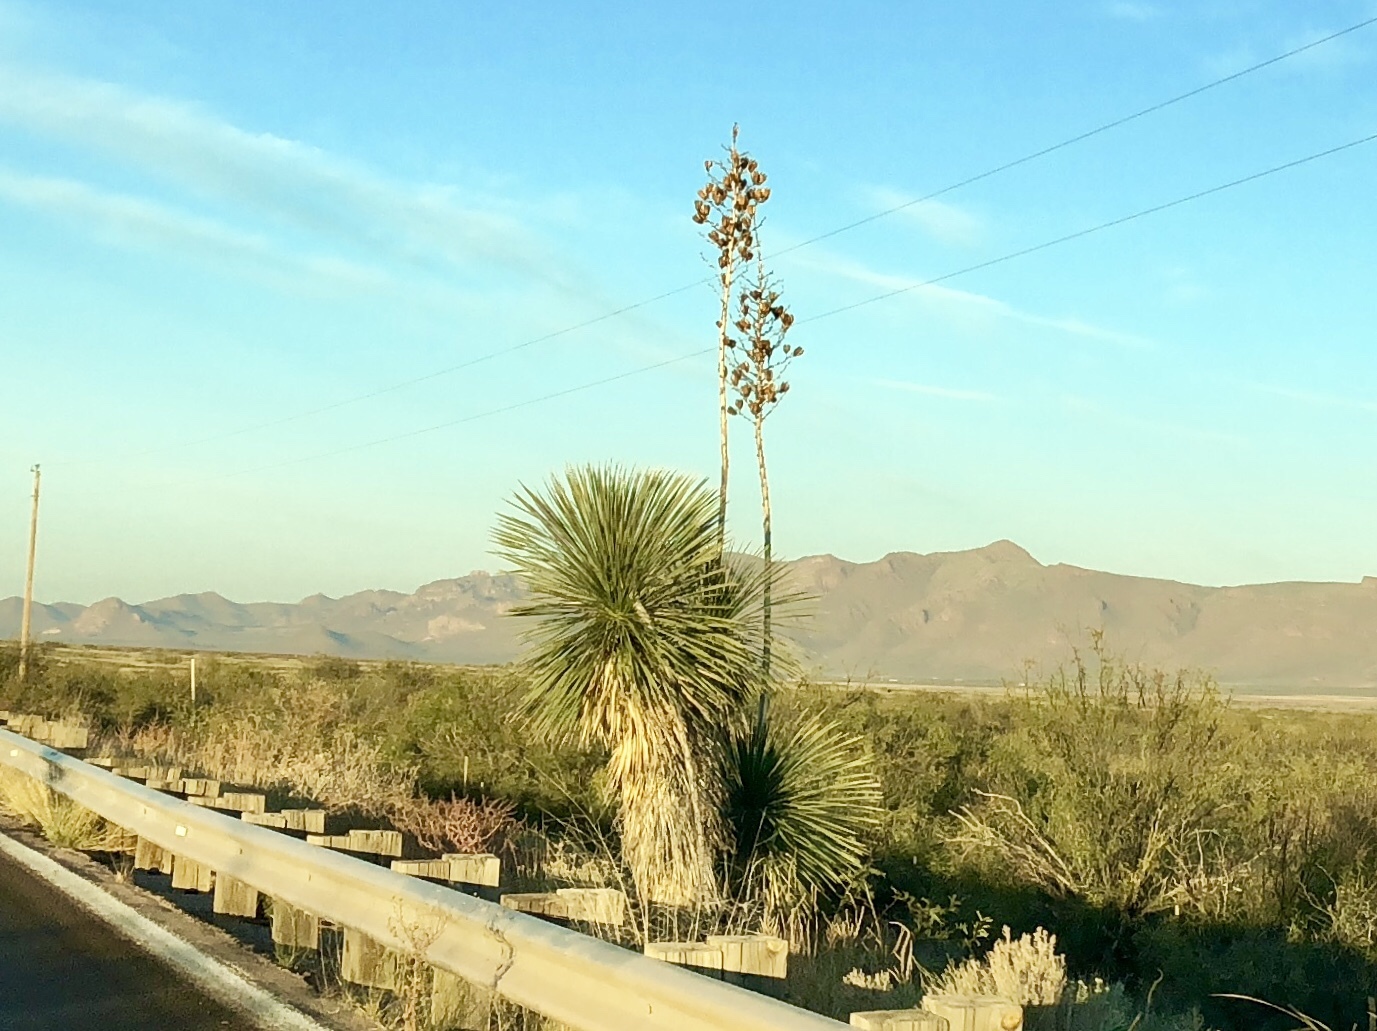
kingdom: Plantae
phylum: Tracheophyta
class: Liliopsida
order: Asparagales
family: Asparagaceae
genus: Yucca
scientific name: Yucca elata
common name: Palmella
